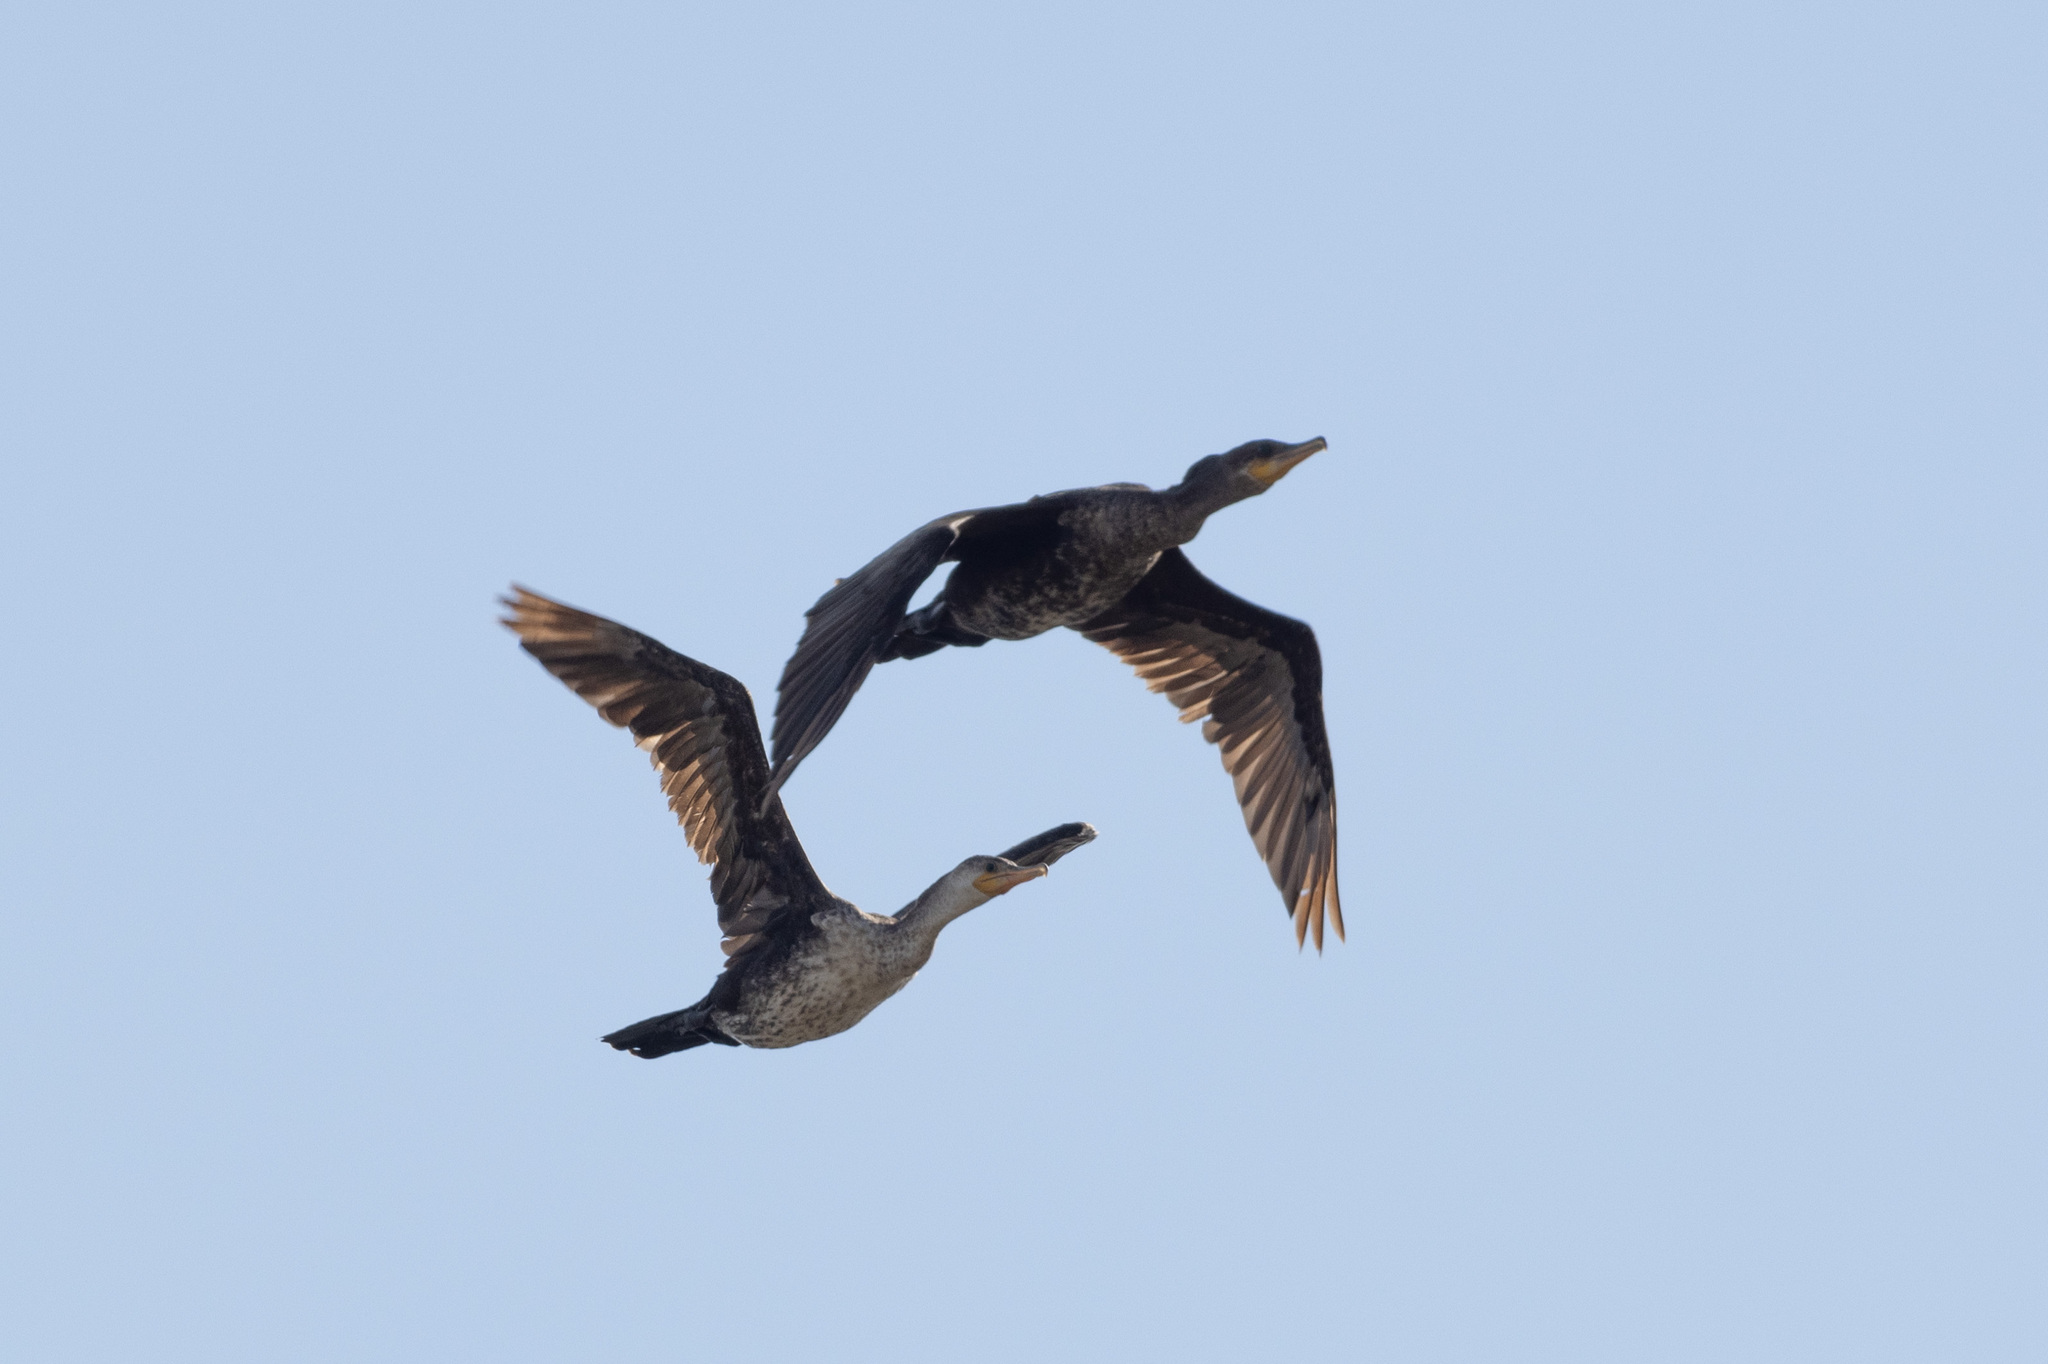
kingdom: Animalia
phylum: Chordata
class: Aves
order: Suliformes
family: Phalacrocoracidae
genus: Phalacrocorax
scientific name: Phalacrocorax brasilianus
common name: Neotropic cormorant
